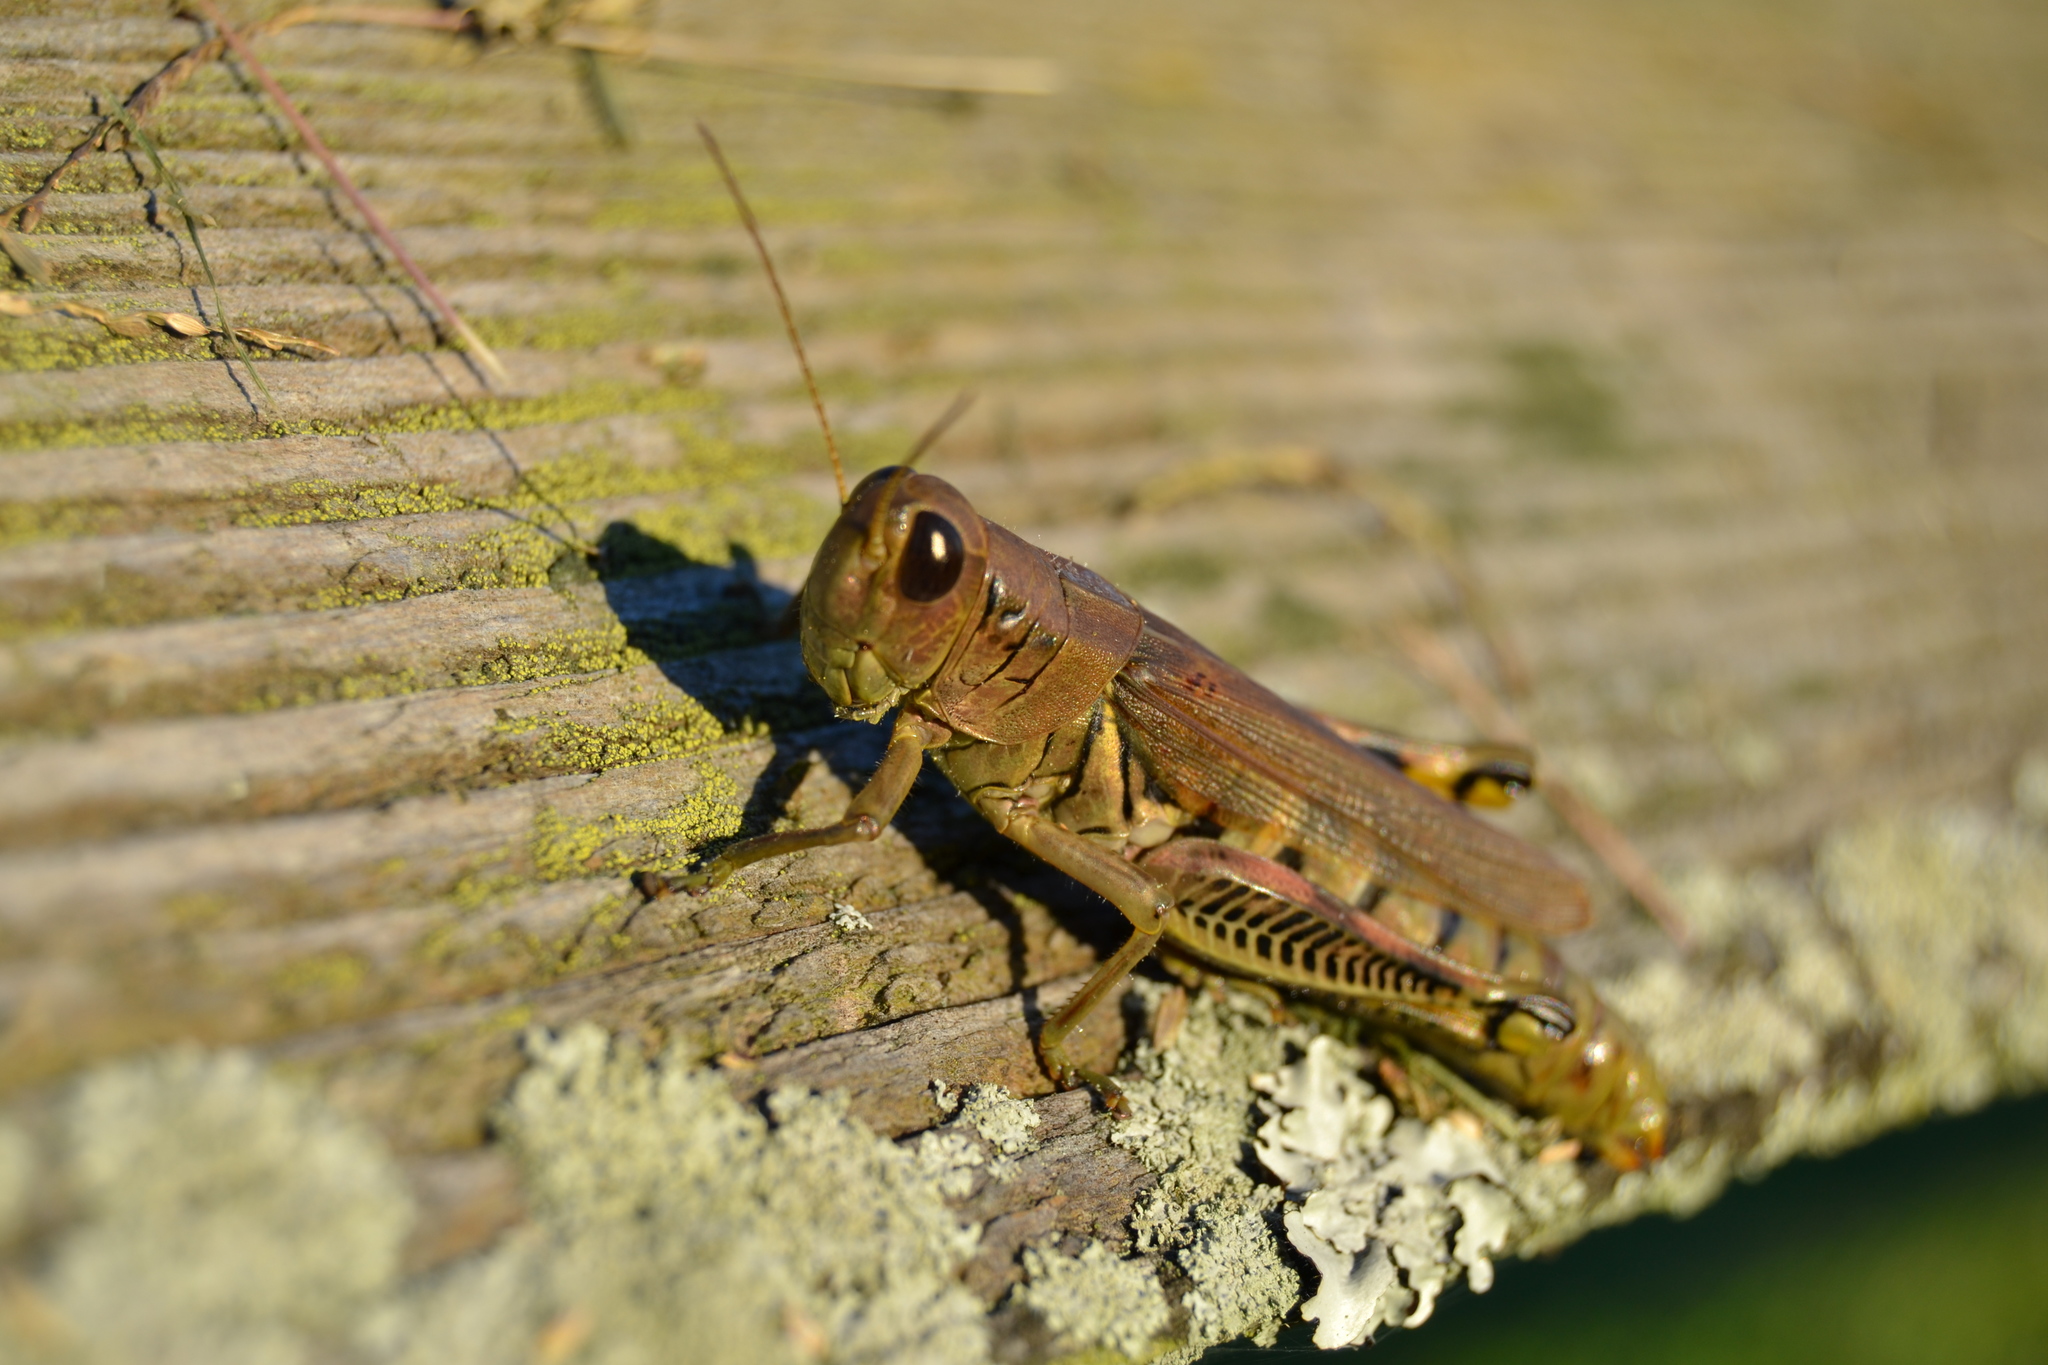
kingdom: Animalia
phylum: Arthropoda
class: Insecta
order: Orthoptera
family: Acrididae
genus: Melanoplus
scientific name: Melanoplus differentialis
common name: Differential grasshopper
